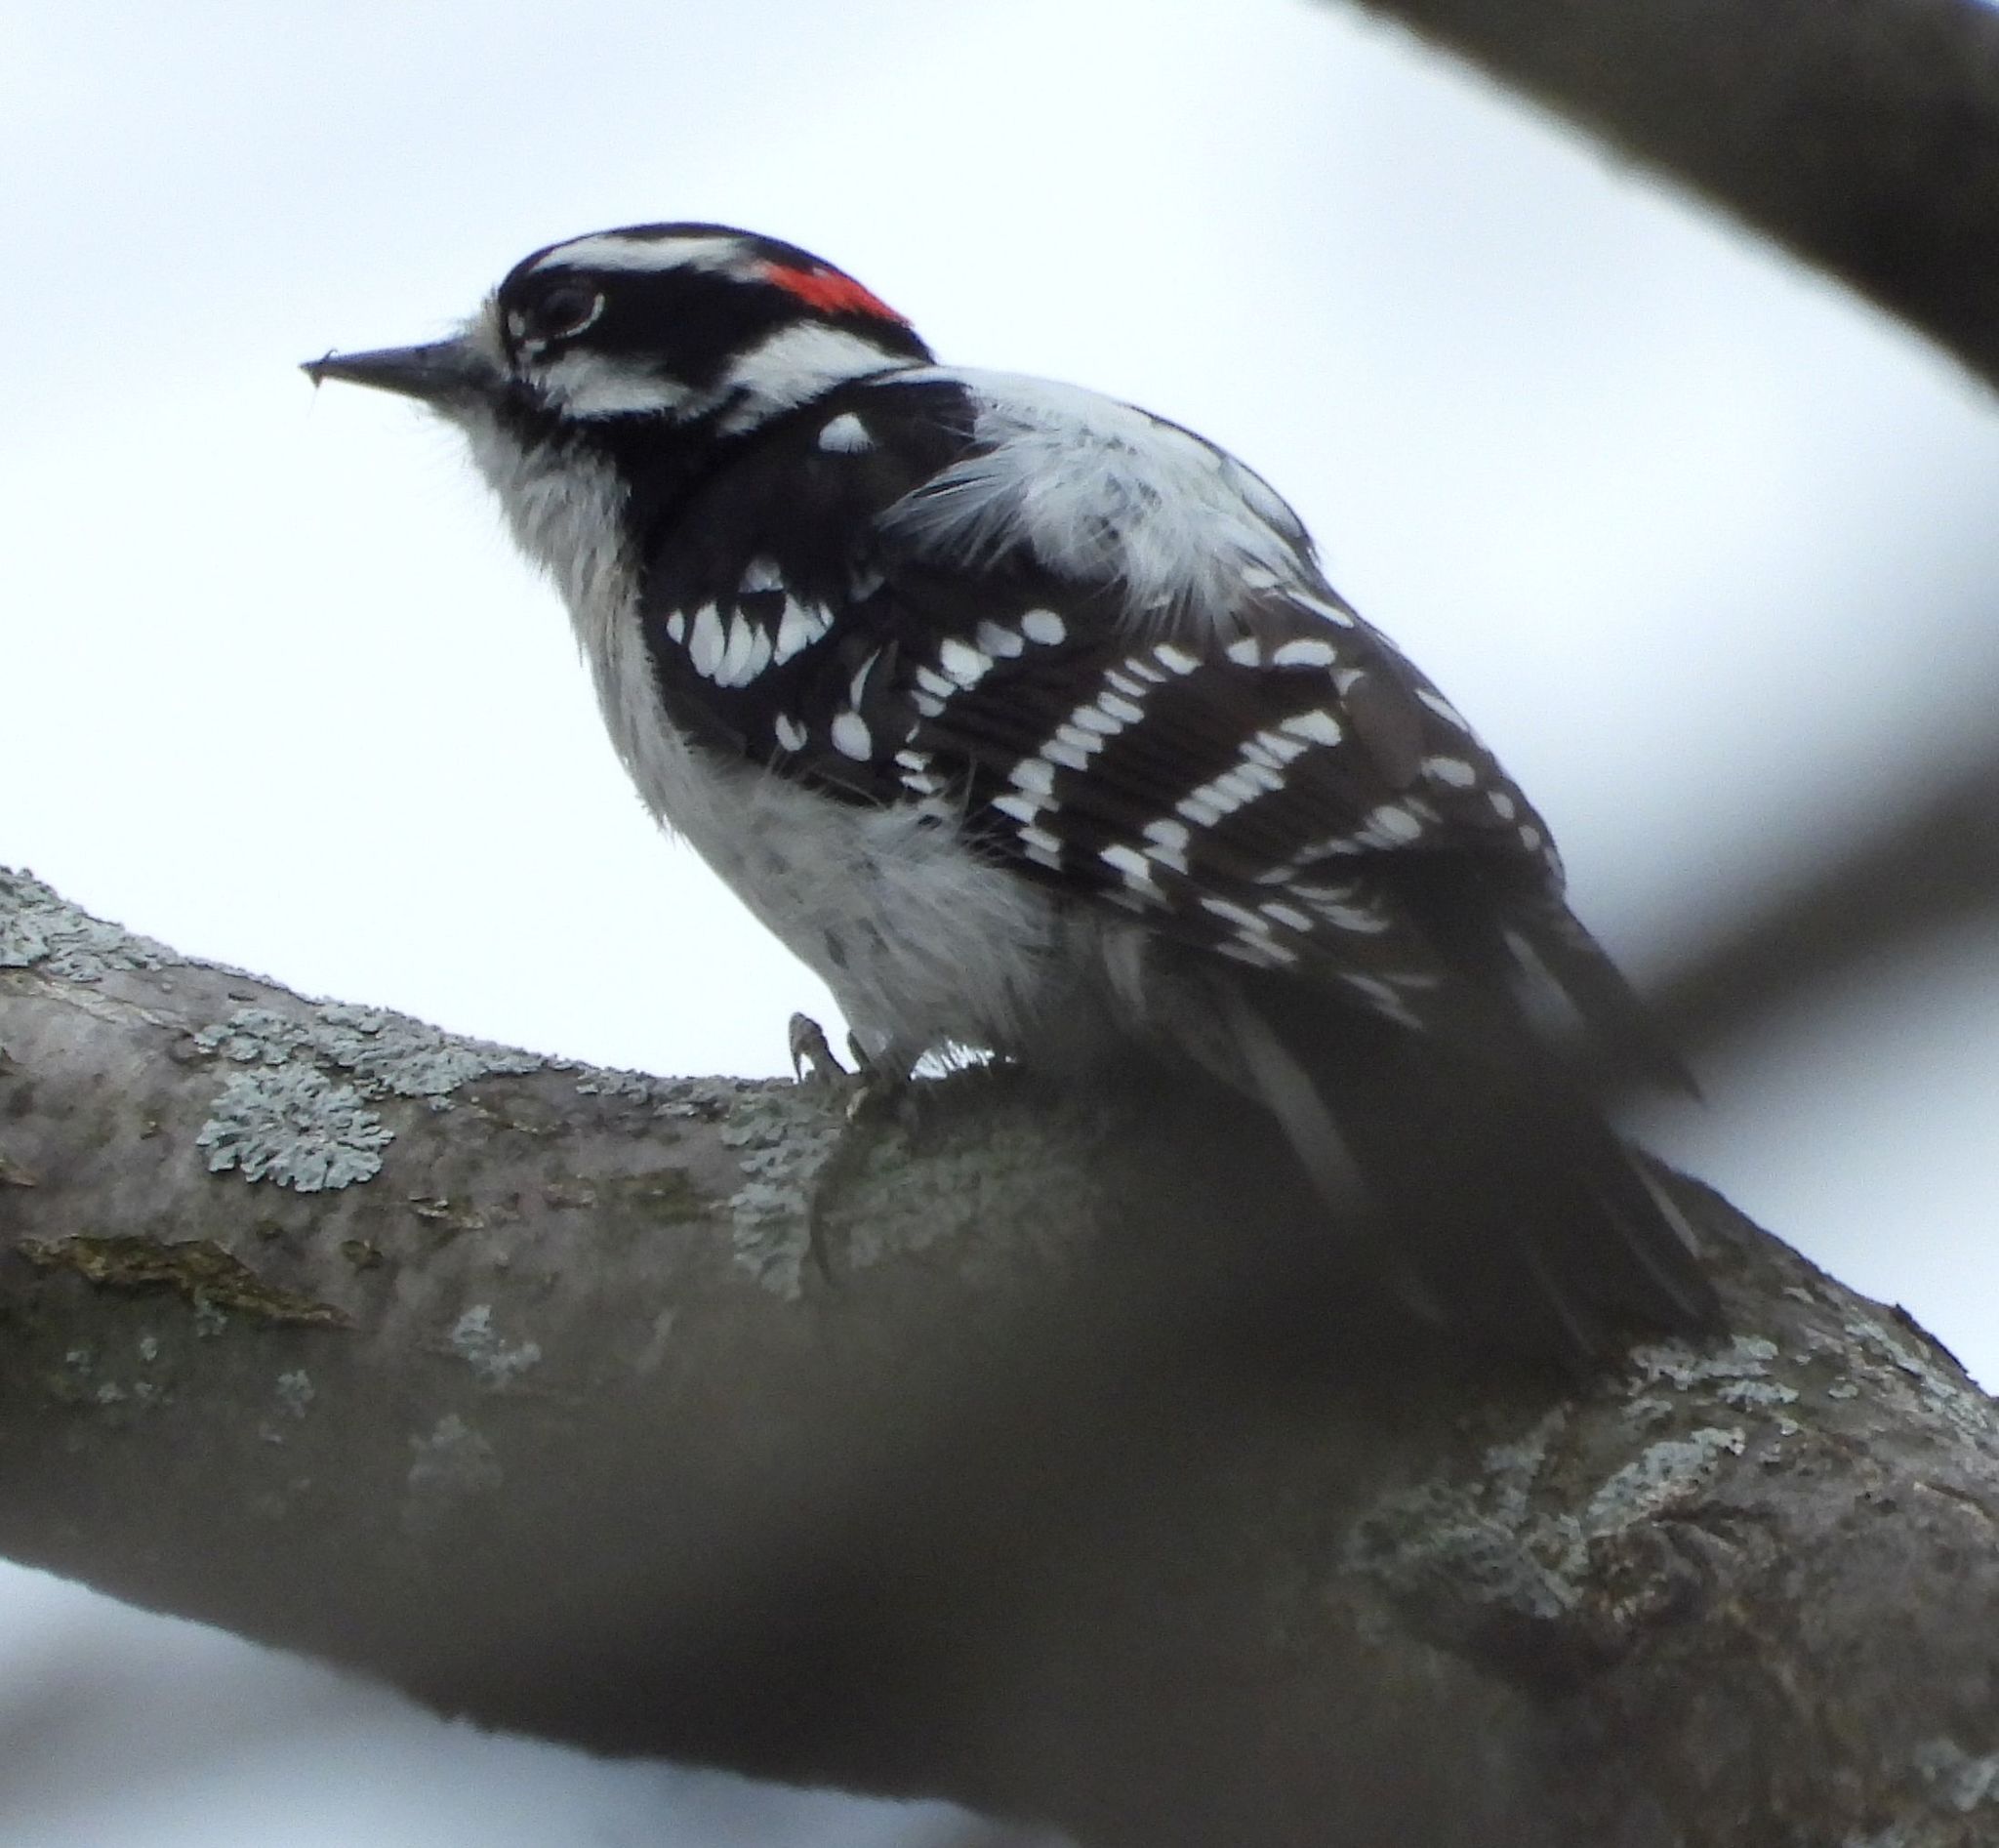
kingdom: Animalia
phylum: Chordata
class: Aves
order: Piciformes
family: Picidae
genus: Dryobates
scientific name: Dryobates pubescens
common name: Downy woodpecker
